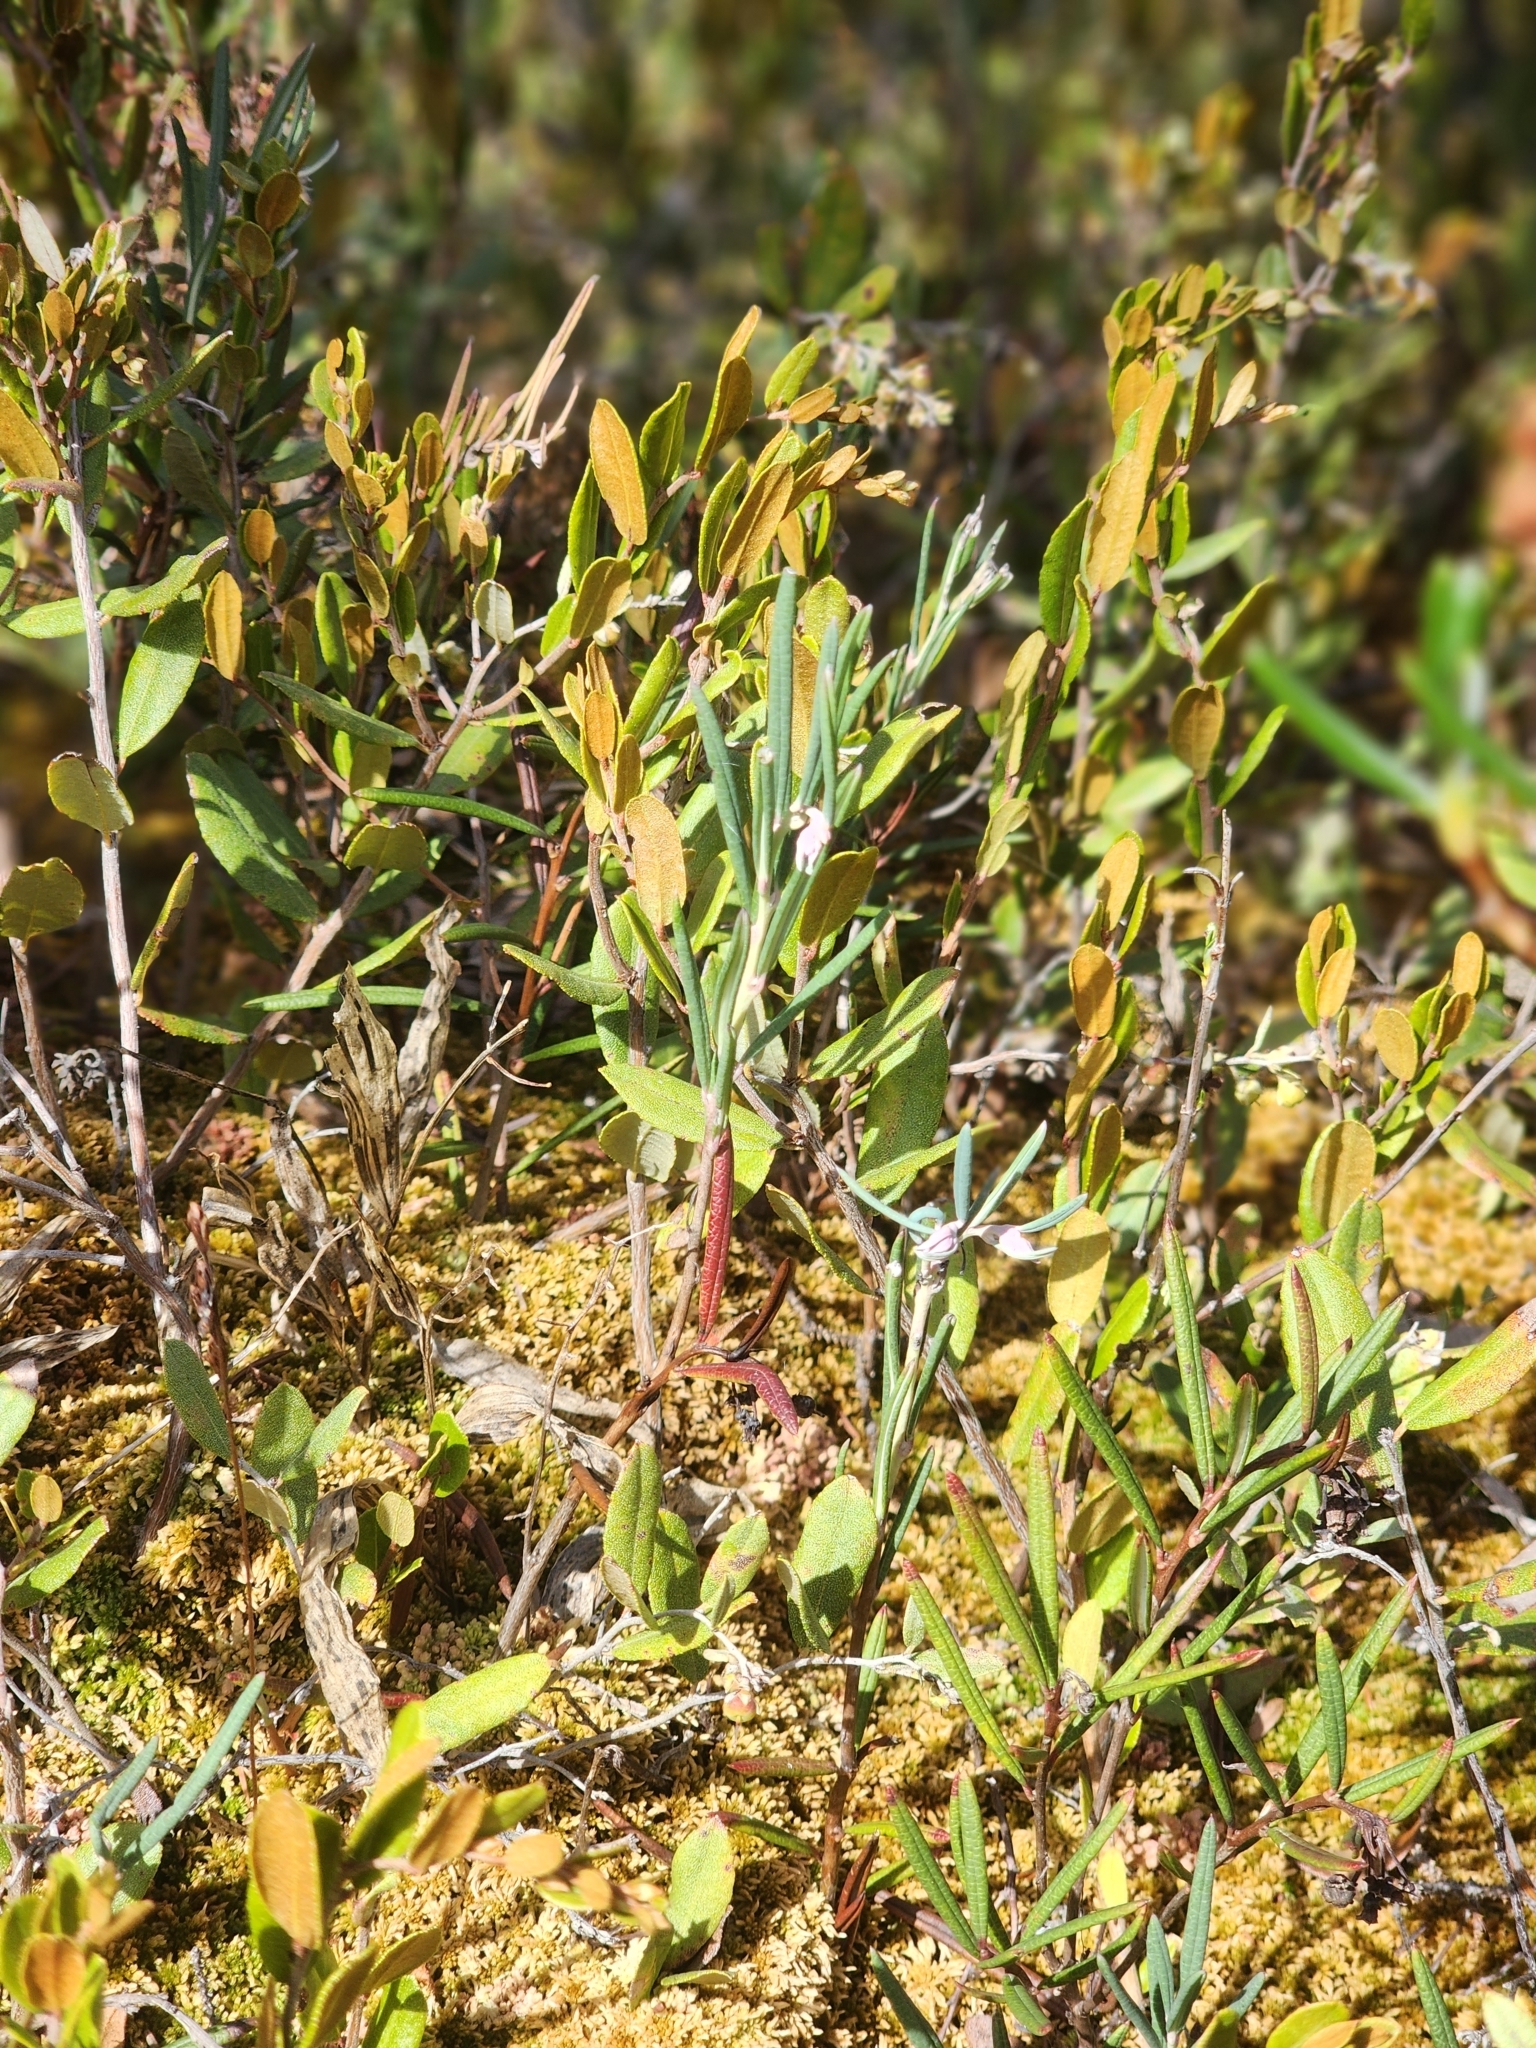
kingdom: Plantae
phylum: Tracheophyta
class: Magnoliopsida
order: Ericales
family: Ericaceae
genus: Andromeda
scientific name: Andromeda polifolia
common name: Bog-rosemary
